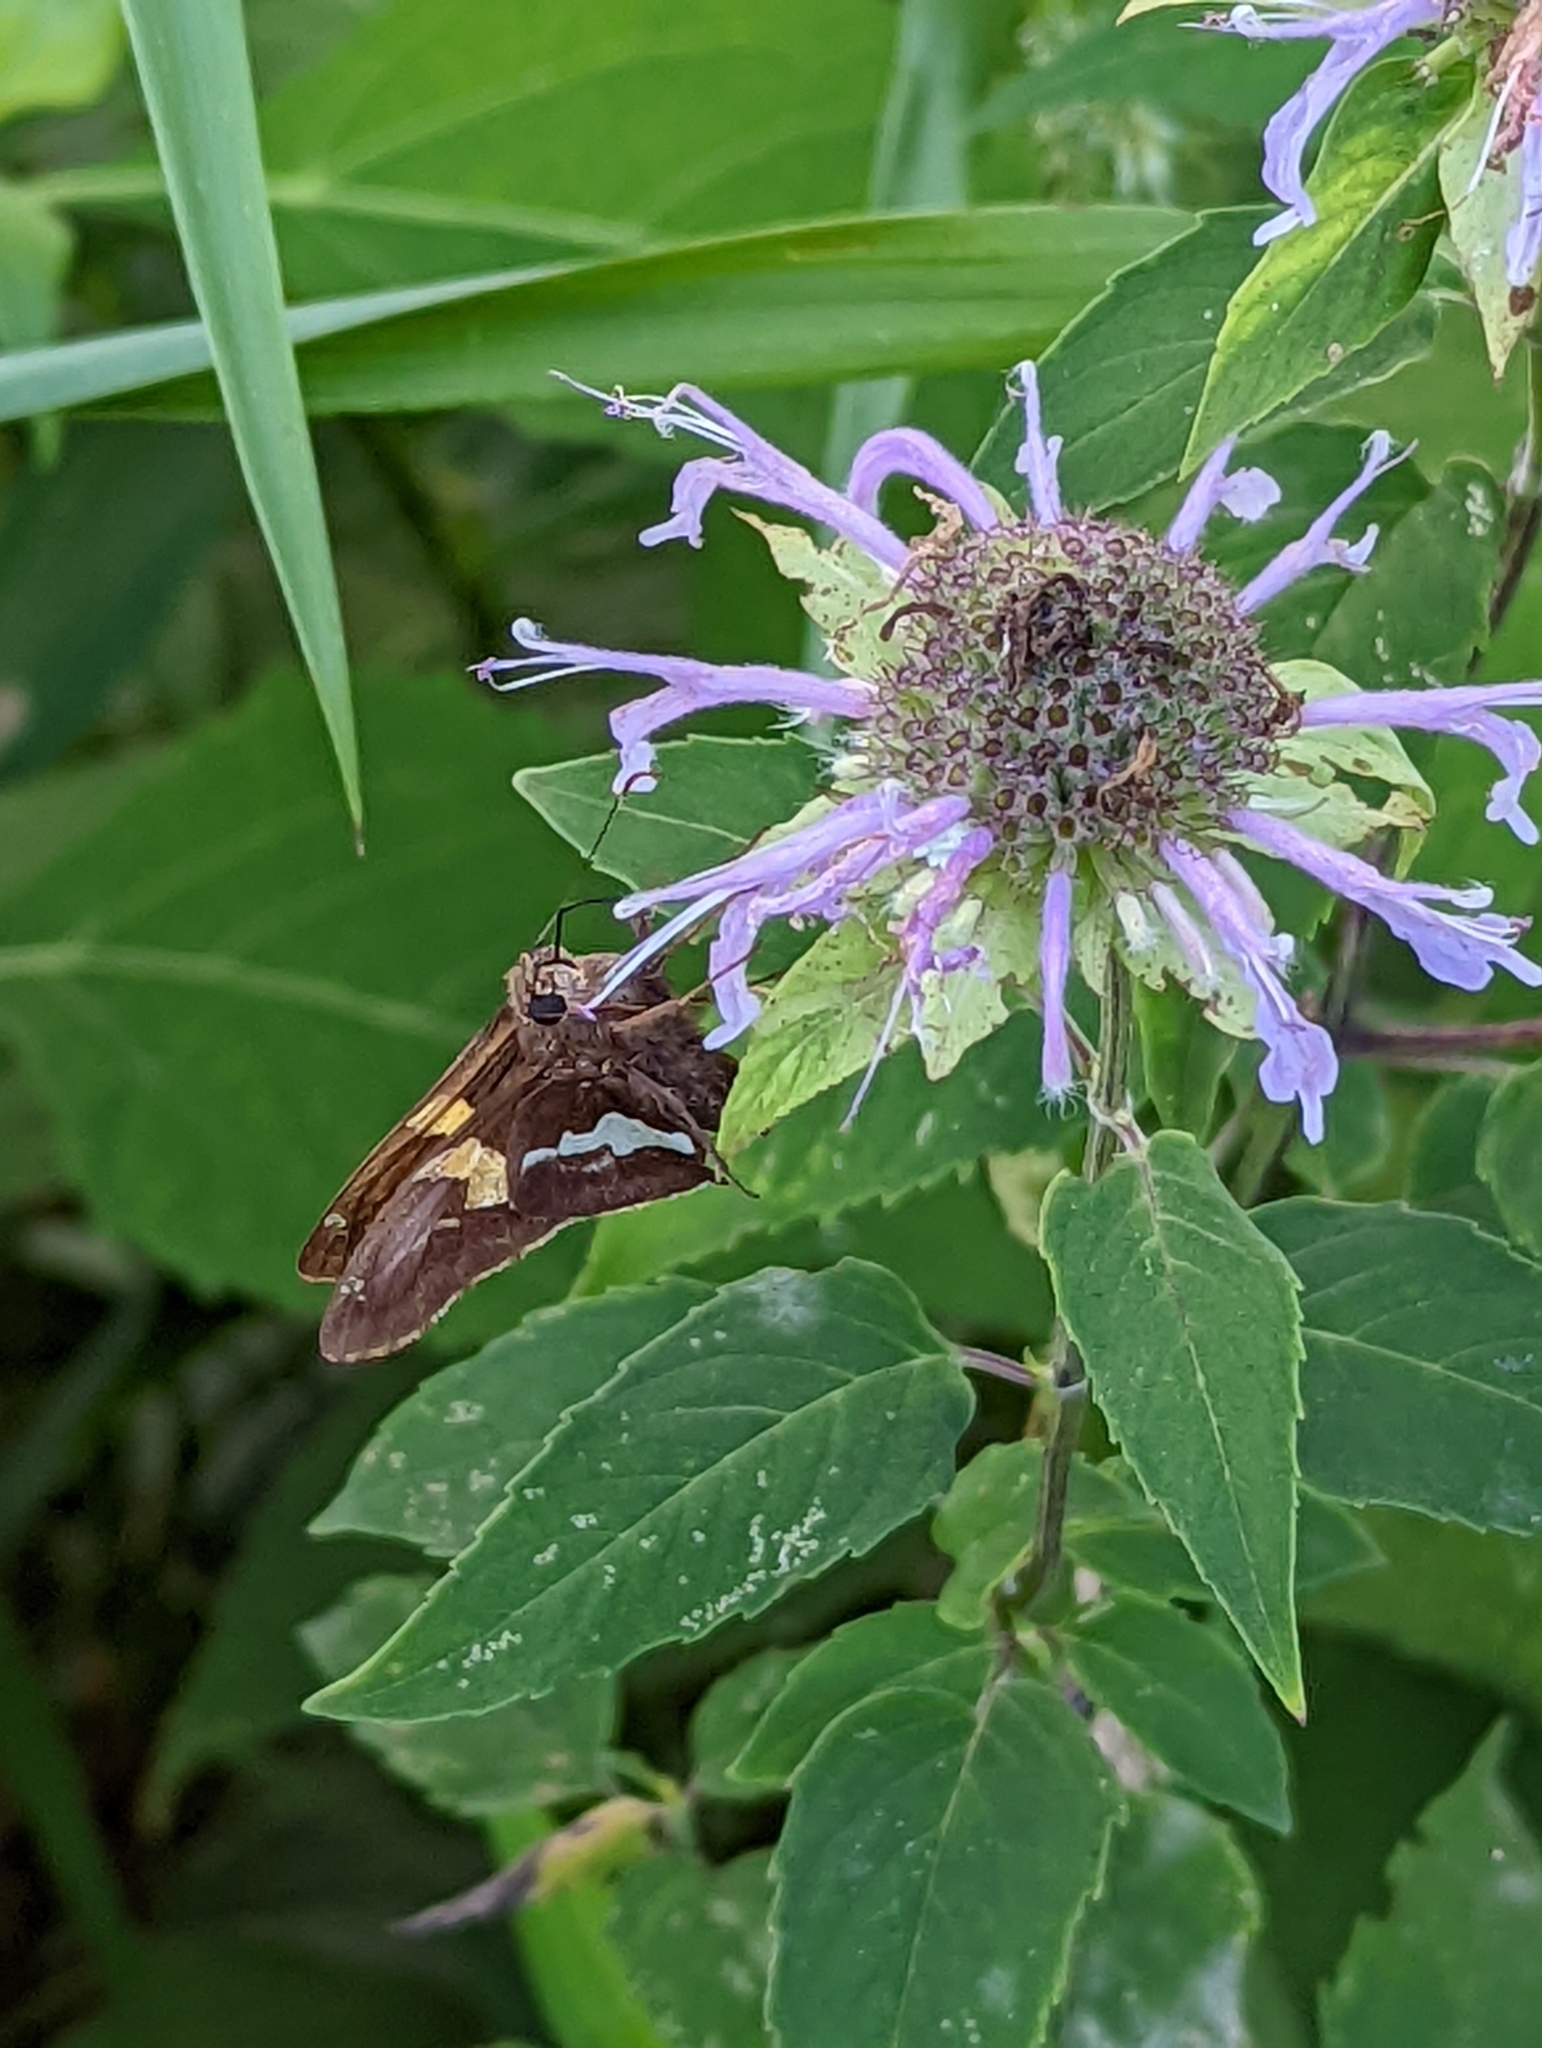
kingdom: Animalia
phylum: Arthropoda
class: Insecta
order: Lepidoptera
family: Hesperiidae
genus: Epargyreus
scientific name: Epargyreus clarus
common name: Silver-spotted skipper
